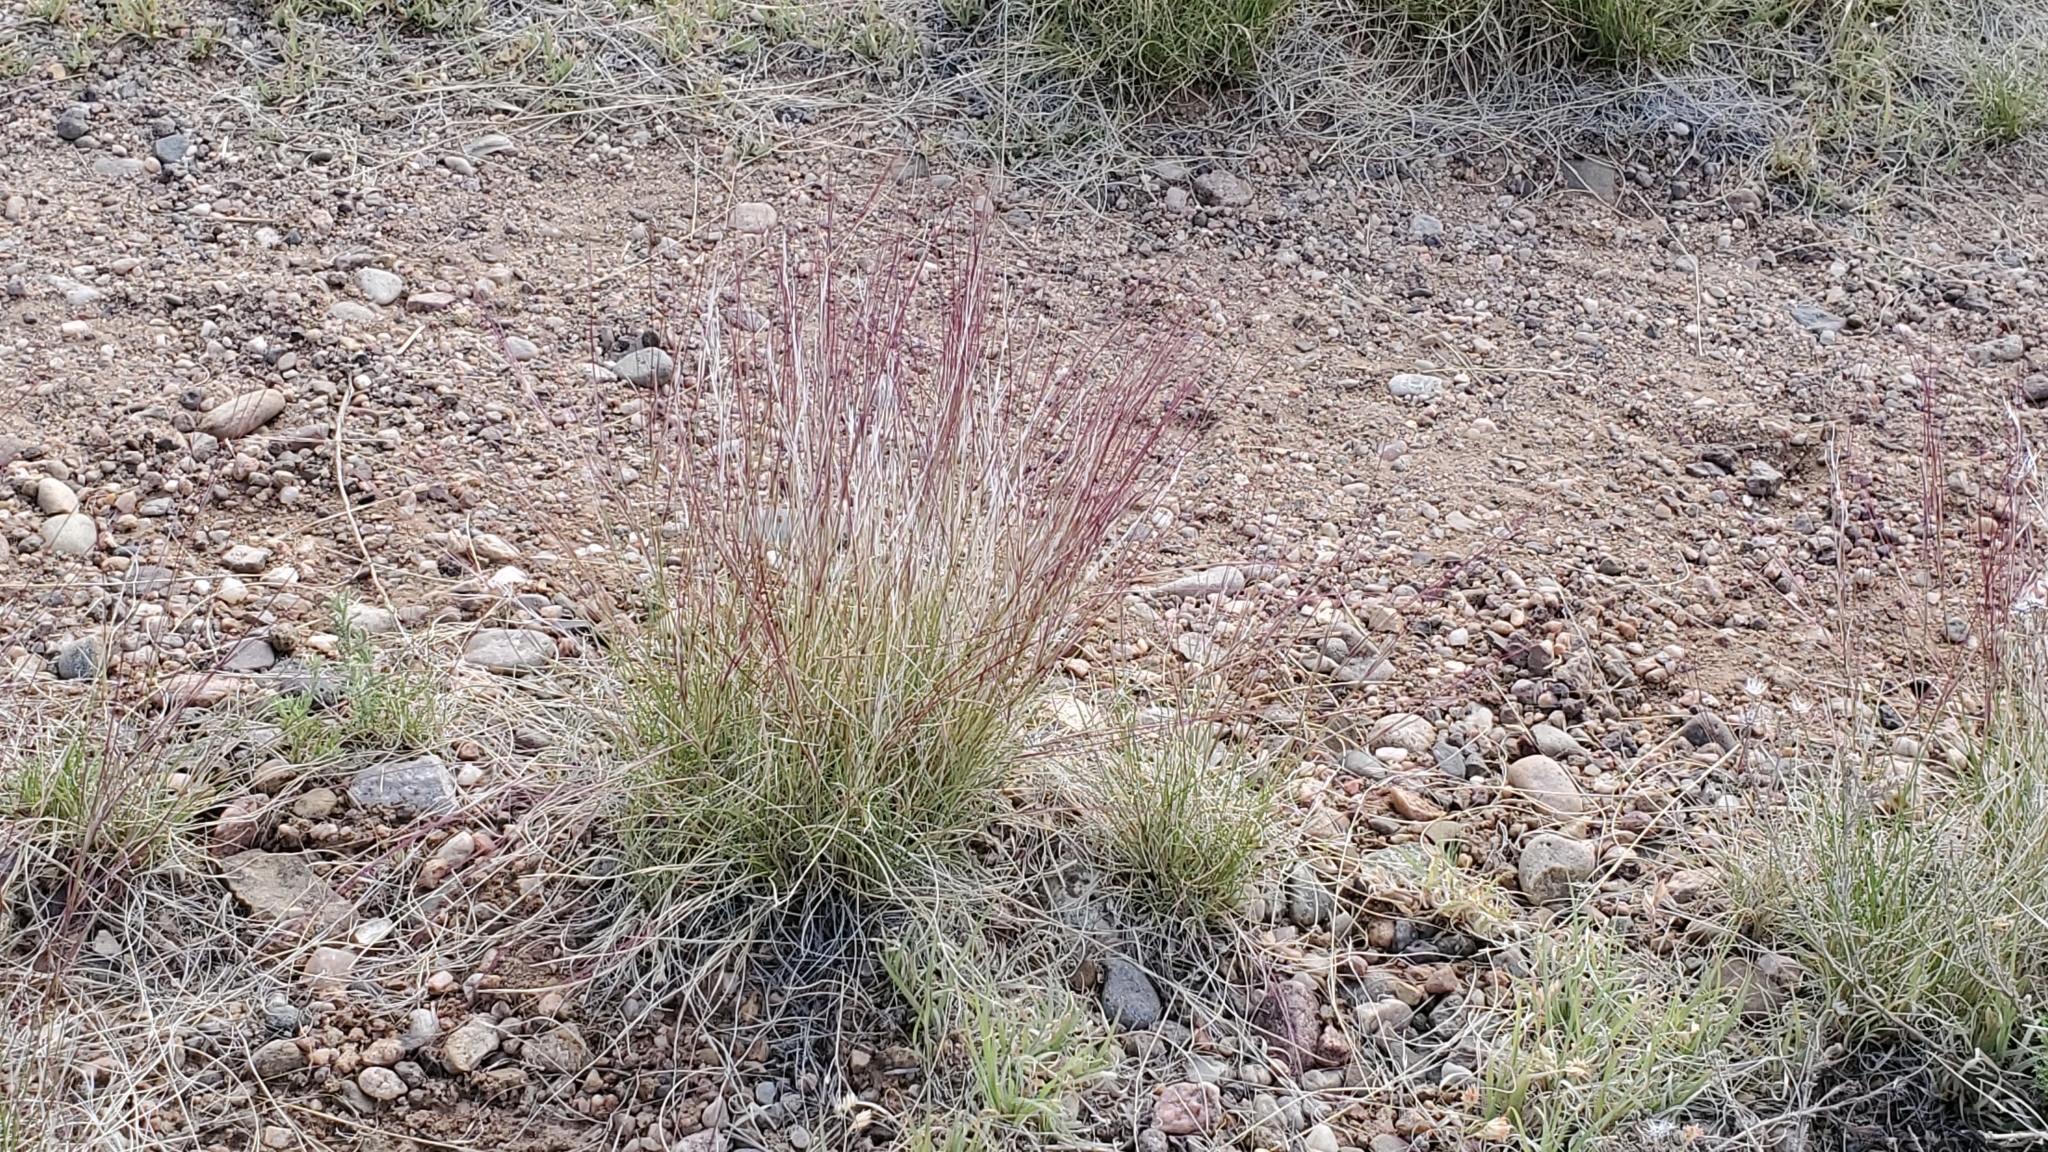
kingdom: Plantae
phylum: Tracheophyta
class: Liliopsida
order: Poales
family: Poaceae
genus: Aristida
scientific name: Aristida purpurea
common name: Purple threeawn
